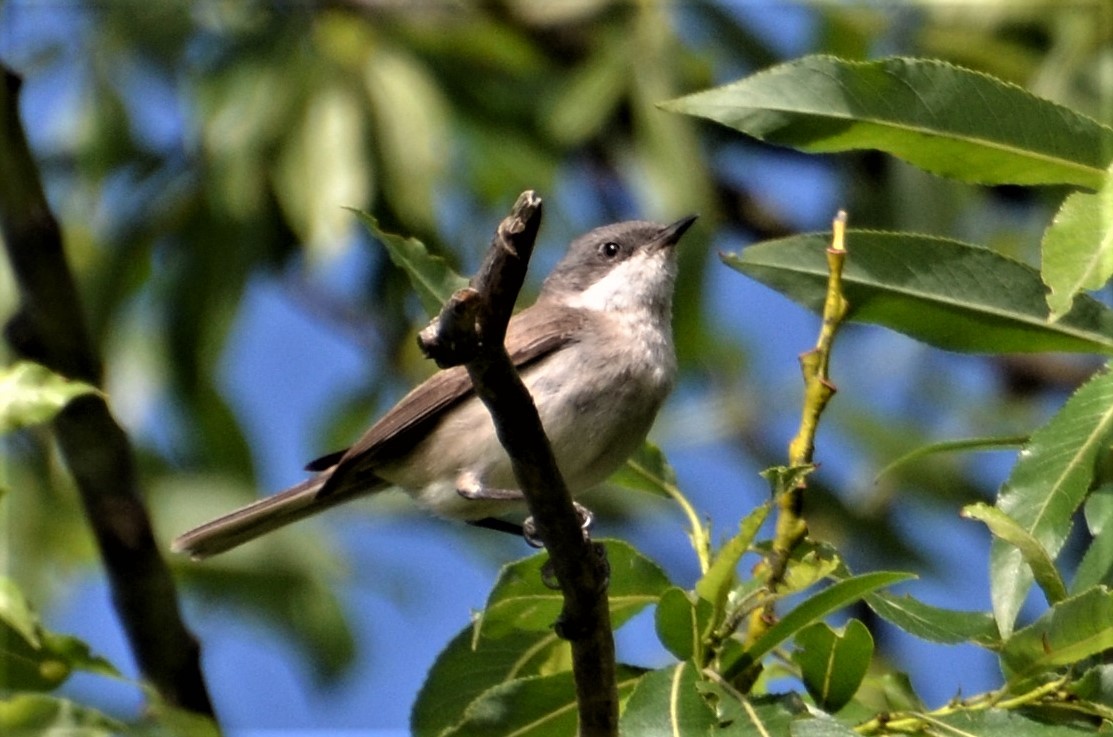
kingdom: Animalia
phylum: Chordata
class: Aves
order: Passeriformes
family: Sylviidae
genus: Sylvia
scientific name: Sylvia curruca
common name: Lesser whitethroat
